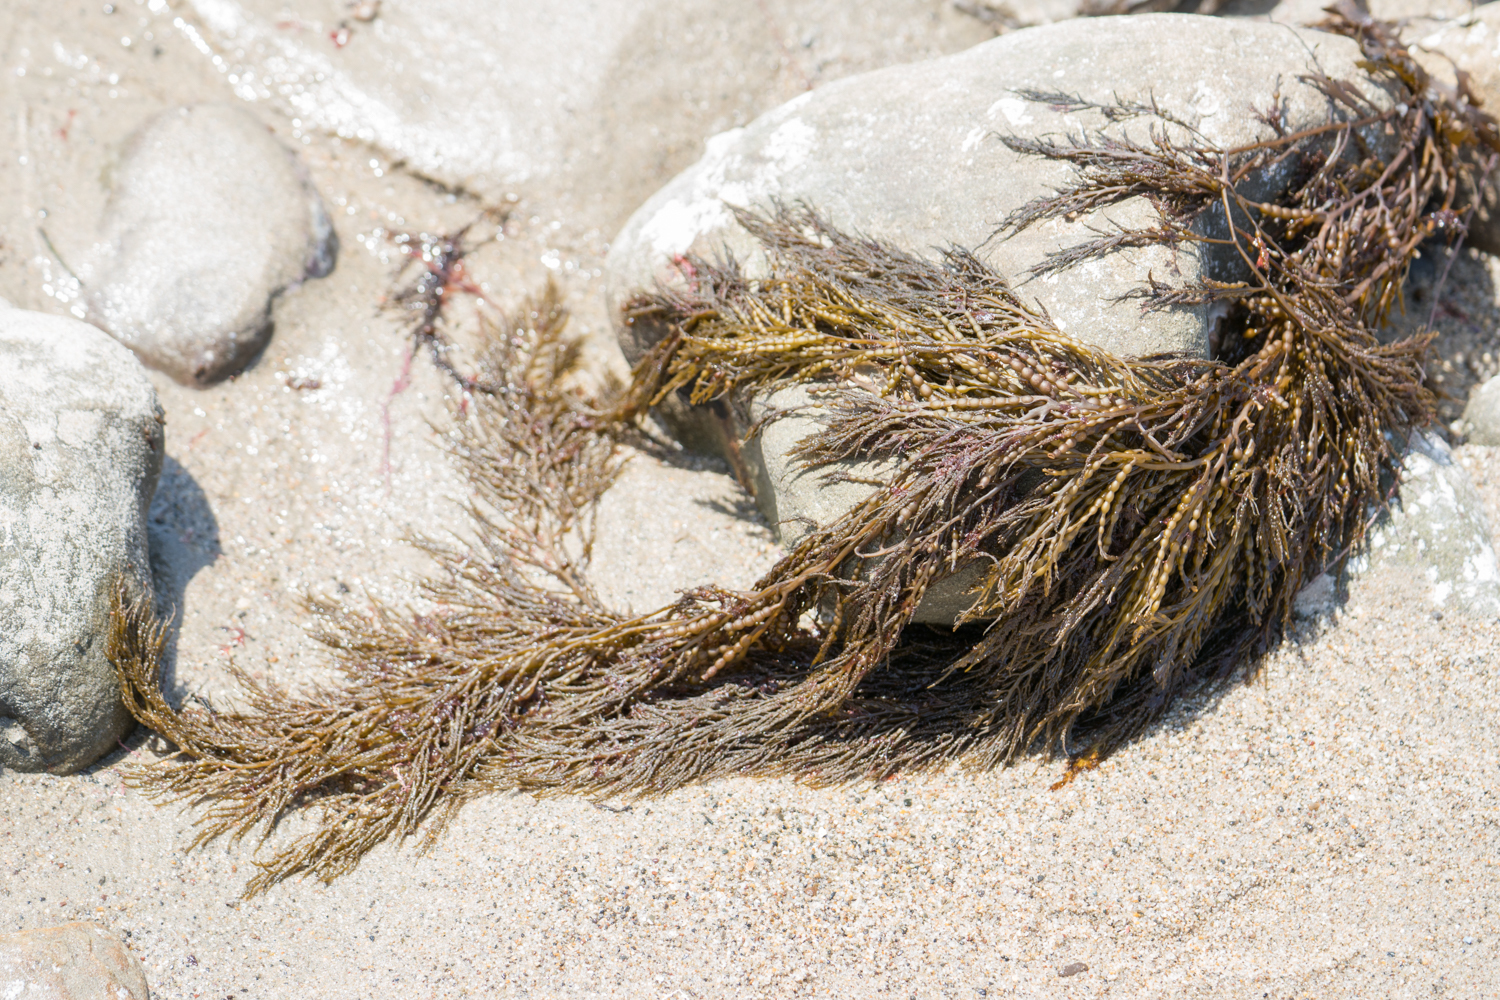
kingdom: Chromista
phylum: Ochrophyta
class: Phaeophyceae
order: Fucales
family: Sargassaceae
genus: Stephanocystis
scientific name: Stephanocystis
